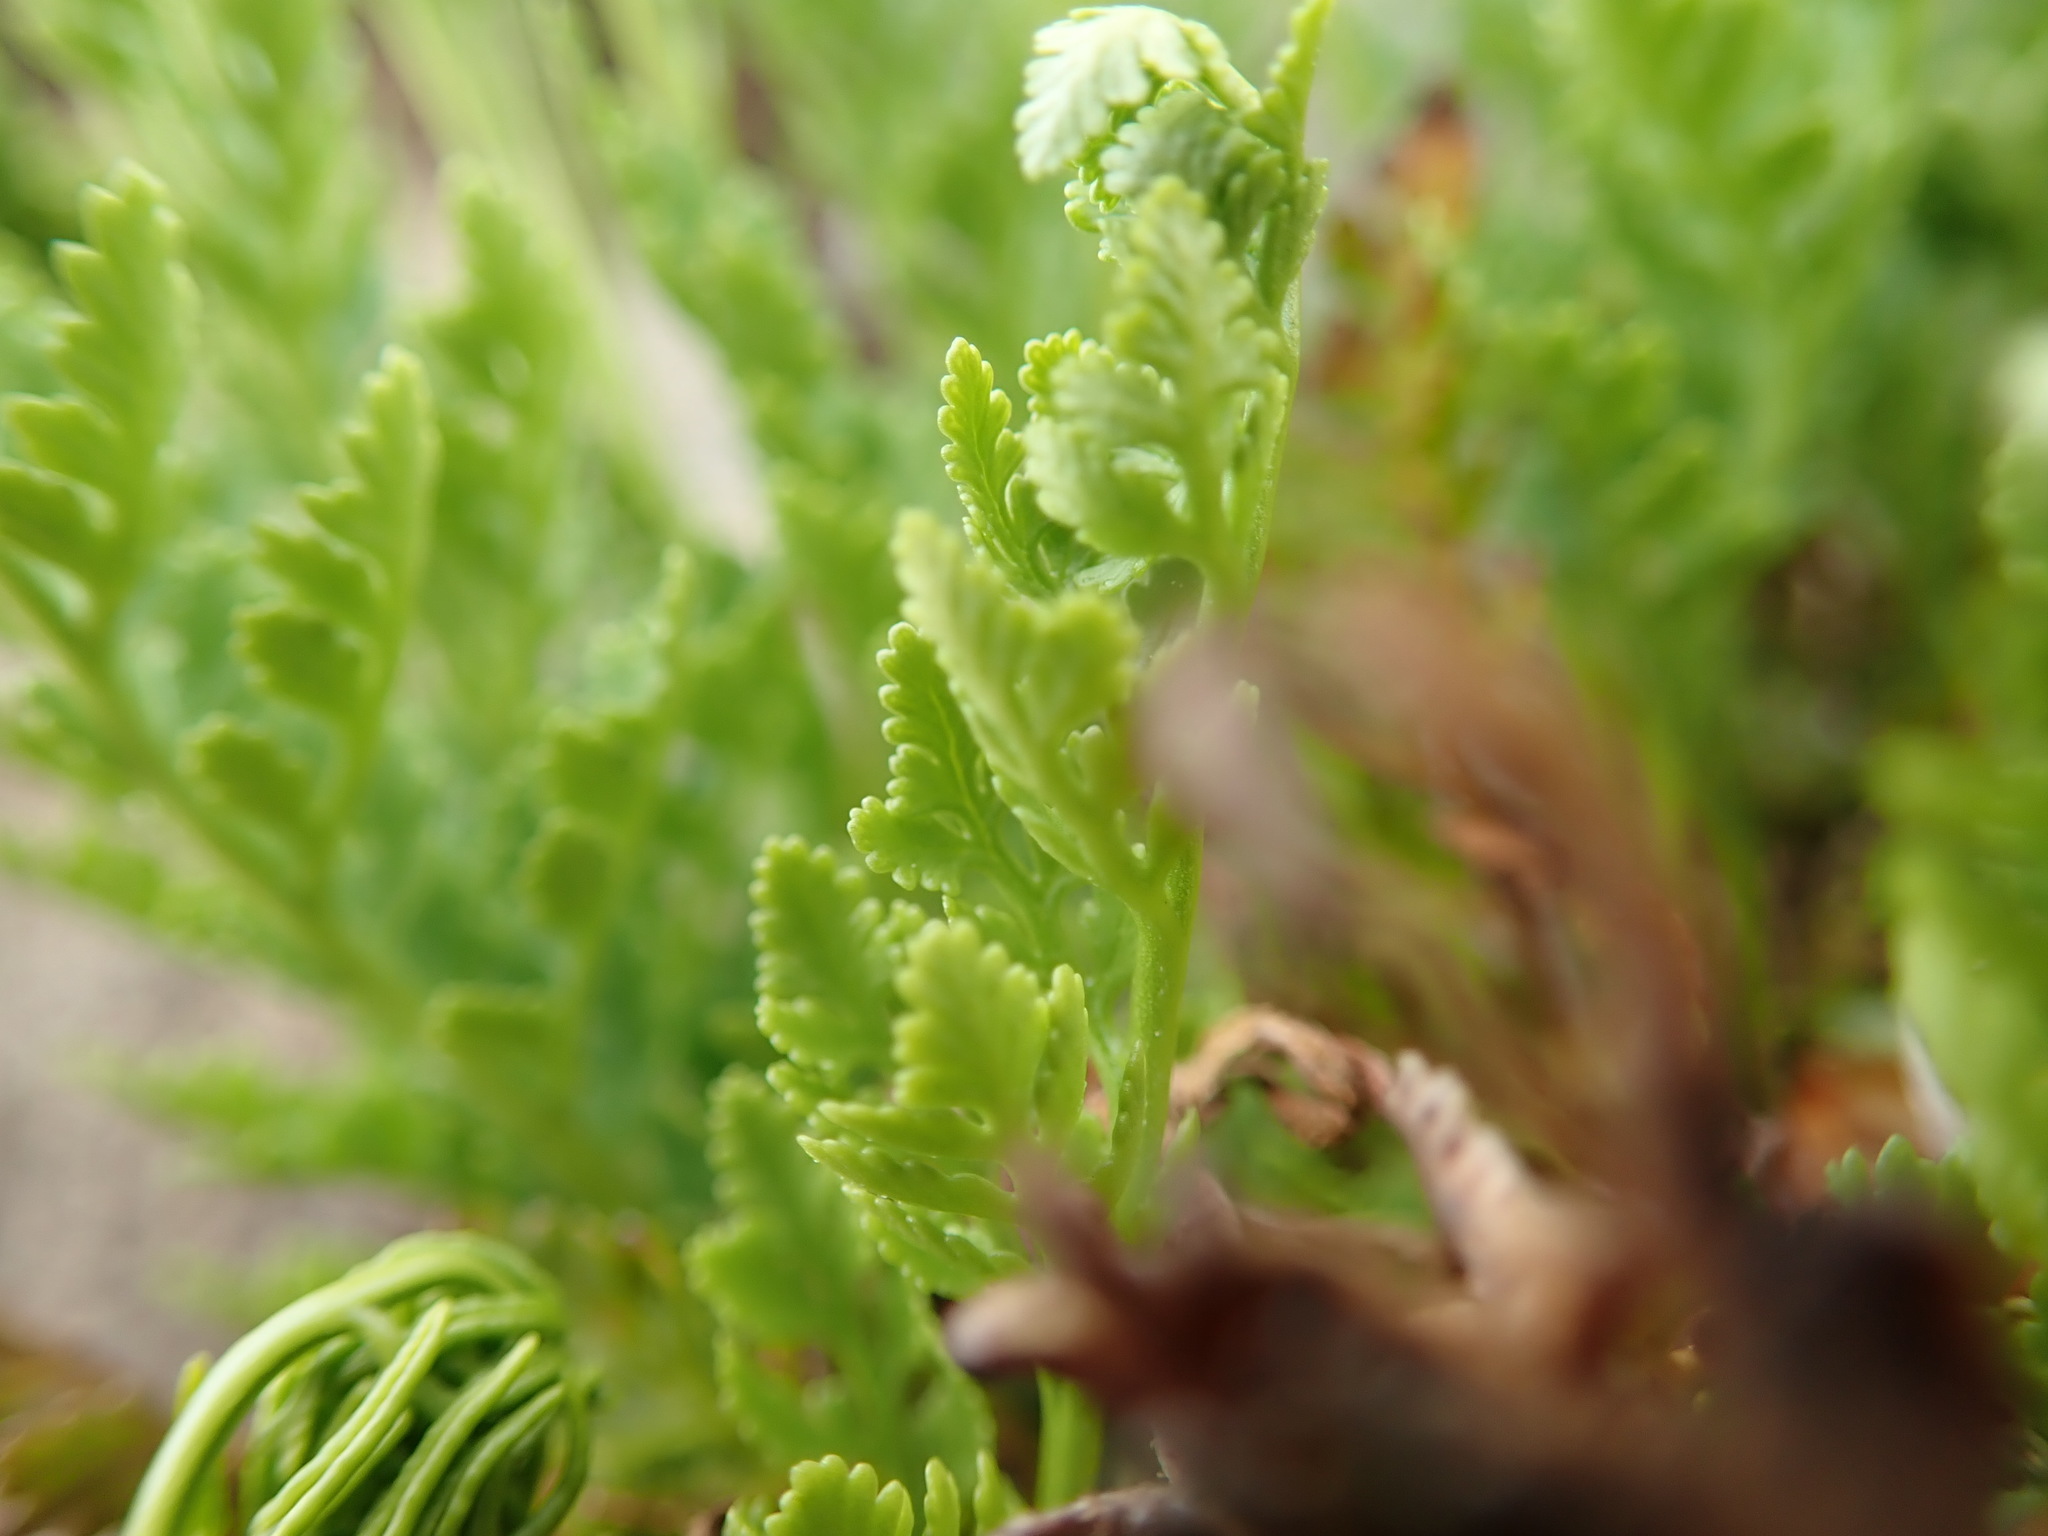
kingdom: Plantae
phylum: Tracheophyta
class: Polypodiopsida
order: Polypodiales
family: Pteridaceae
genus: Cryptogramma
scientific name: Cryptogramma acrostichoides
